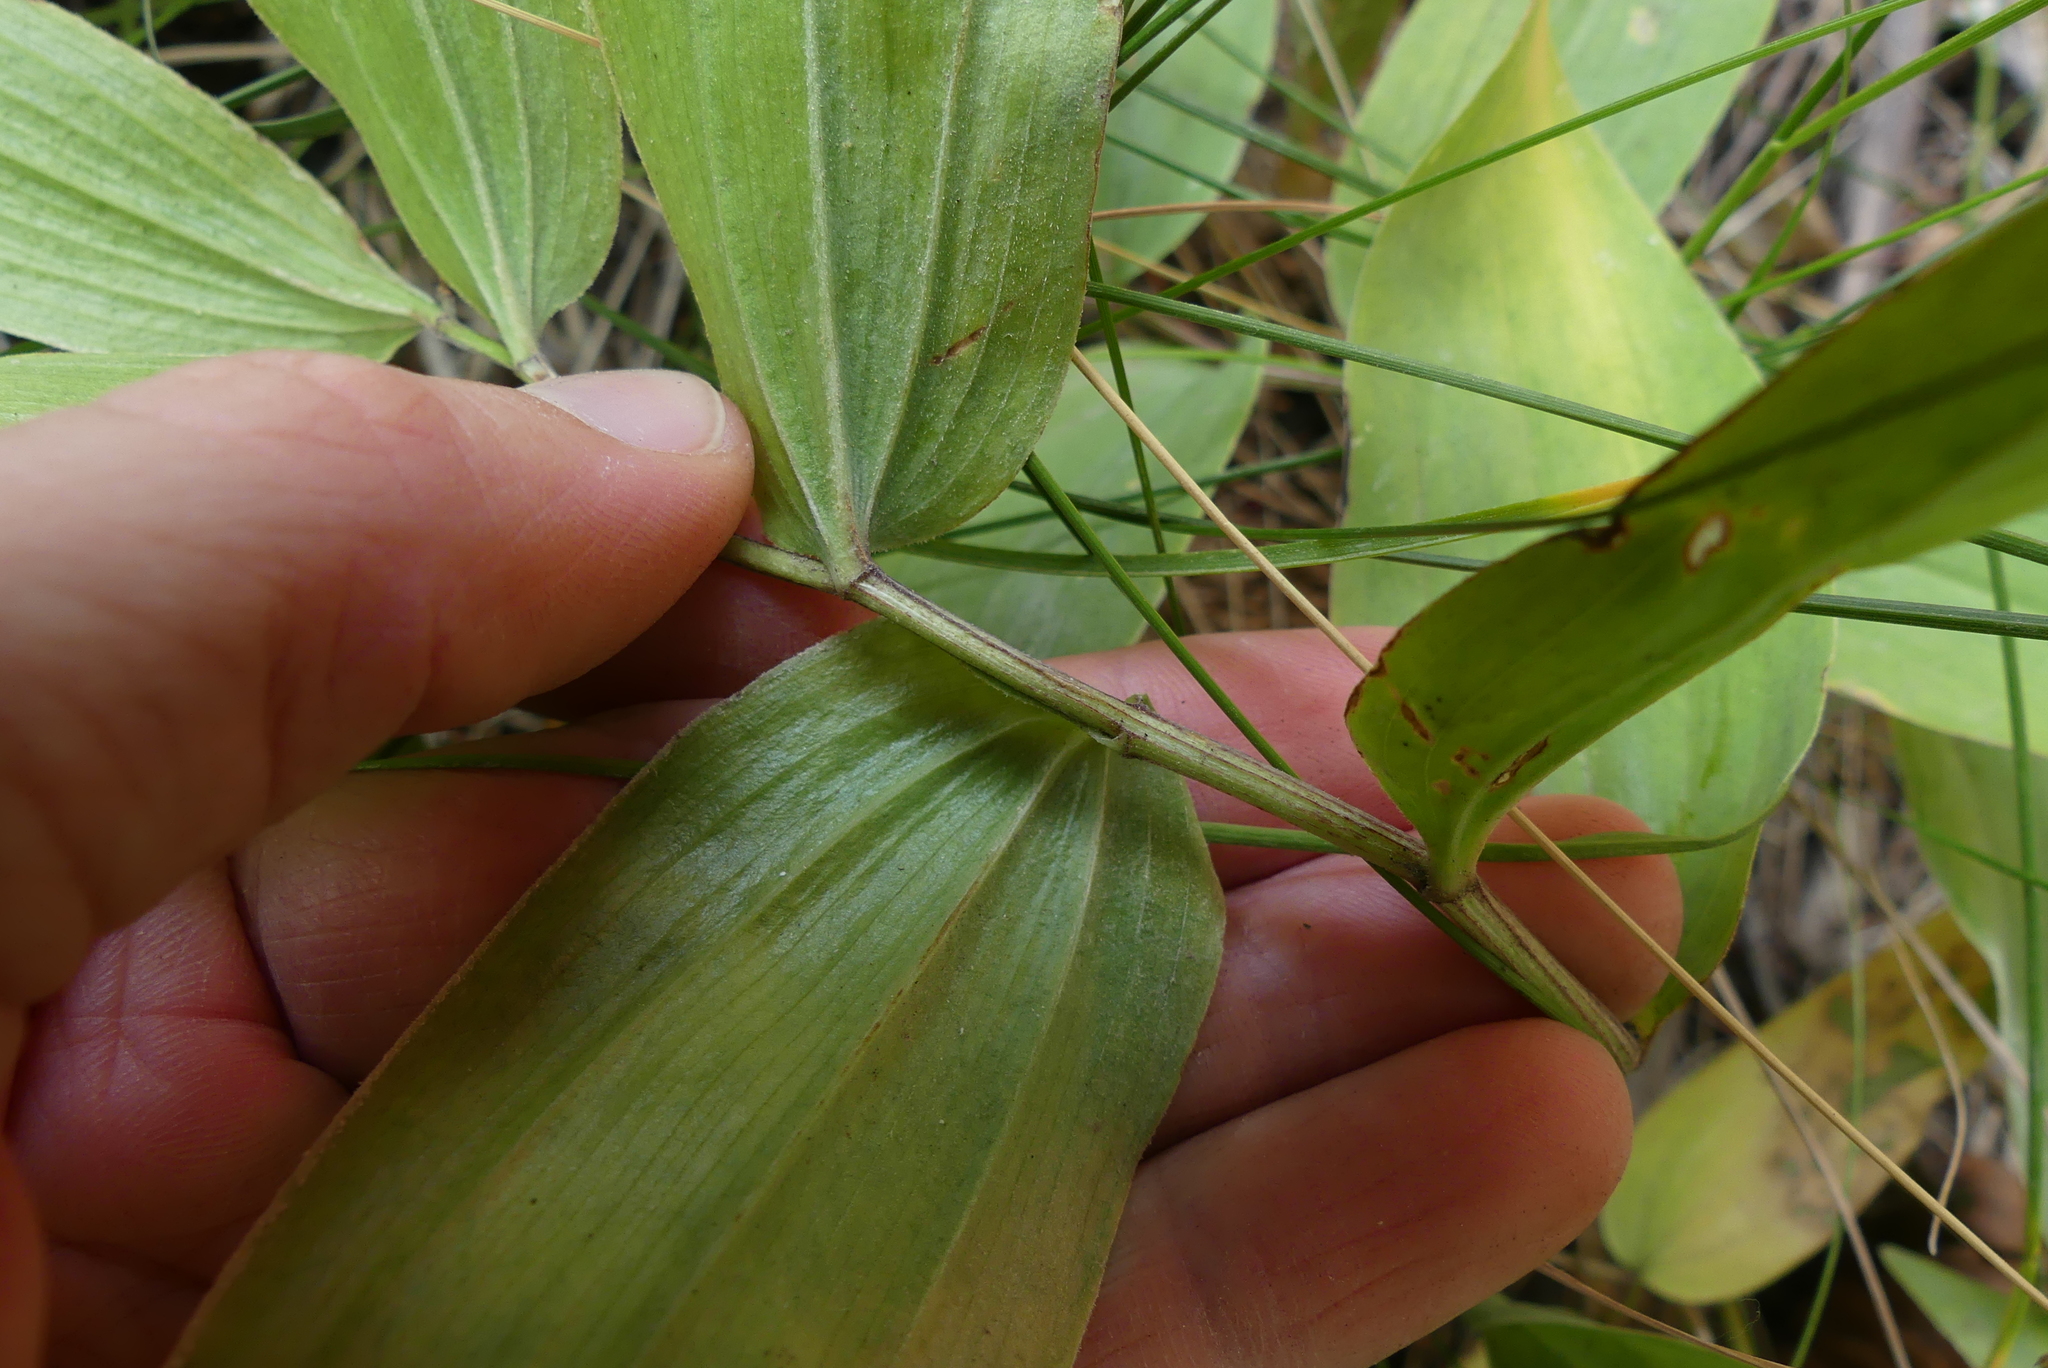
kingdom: Plantae
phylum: Tracheophyta
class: Liliopsida
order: Asparagales
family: Asparagaceae
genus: Maianthemum
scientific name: Maianthemum racemosum
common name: False spikenard
